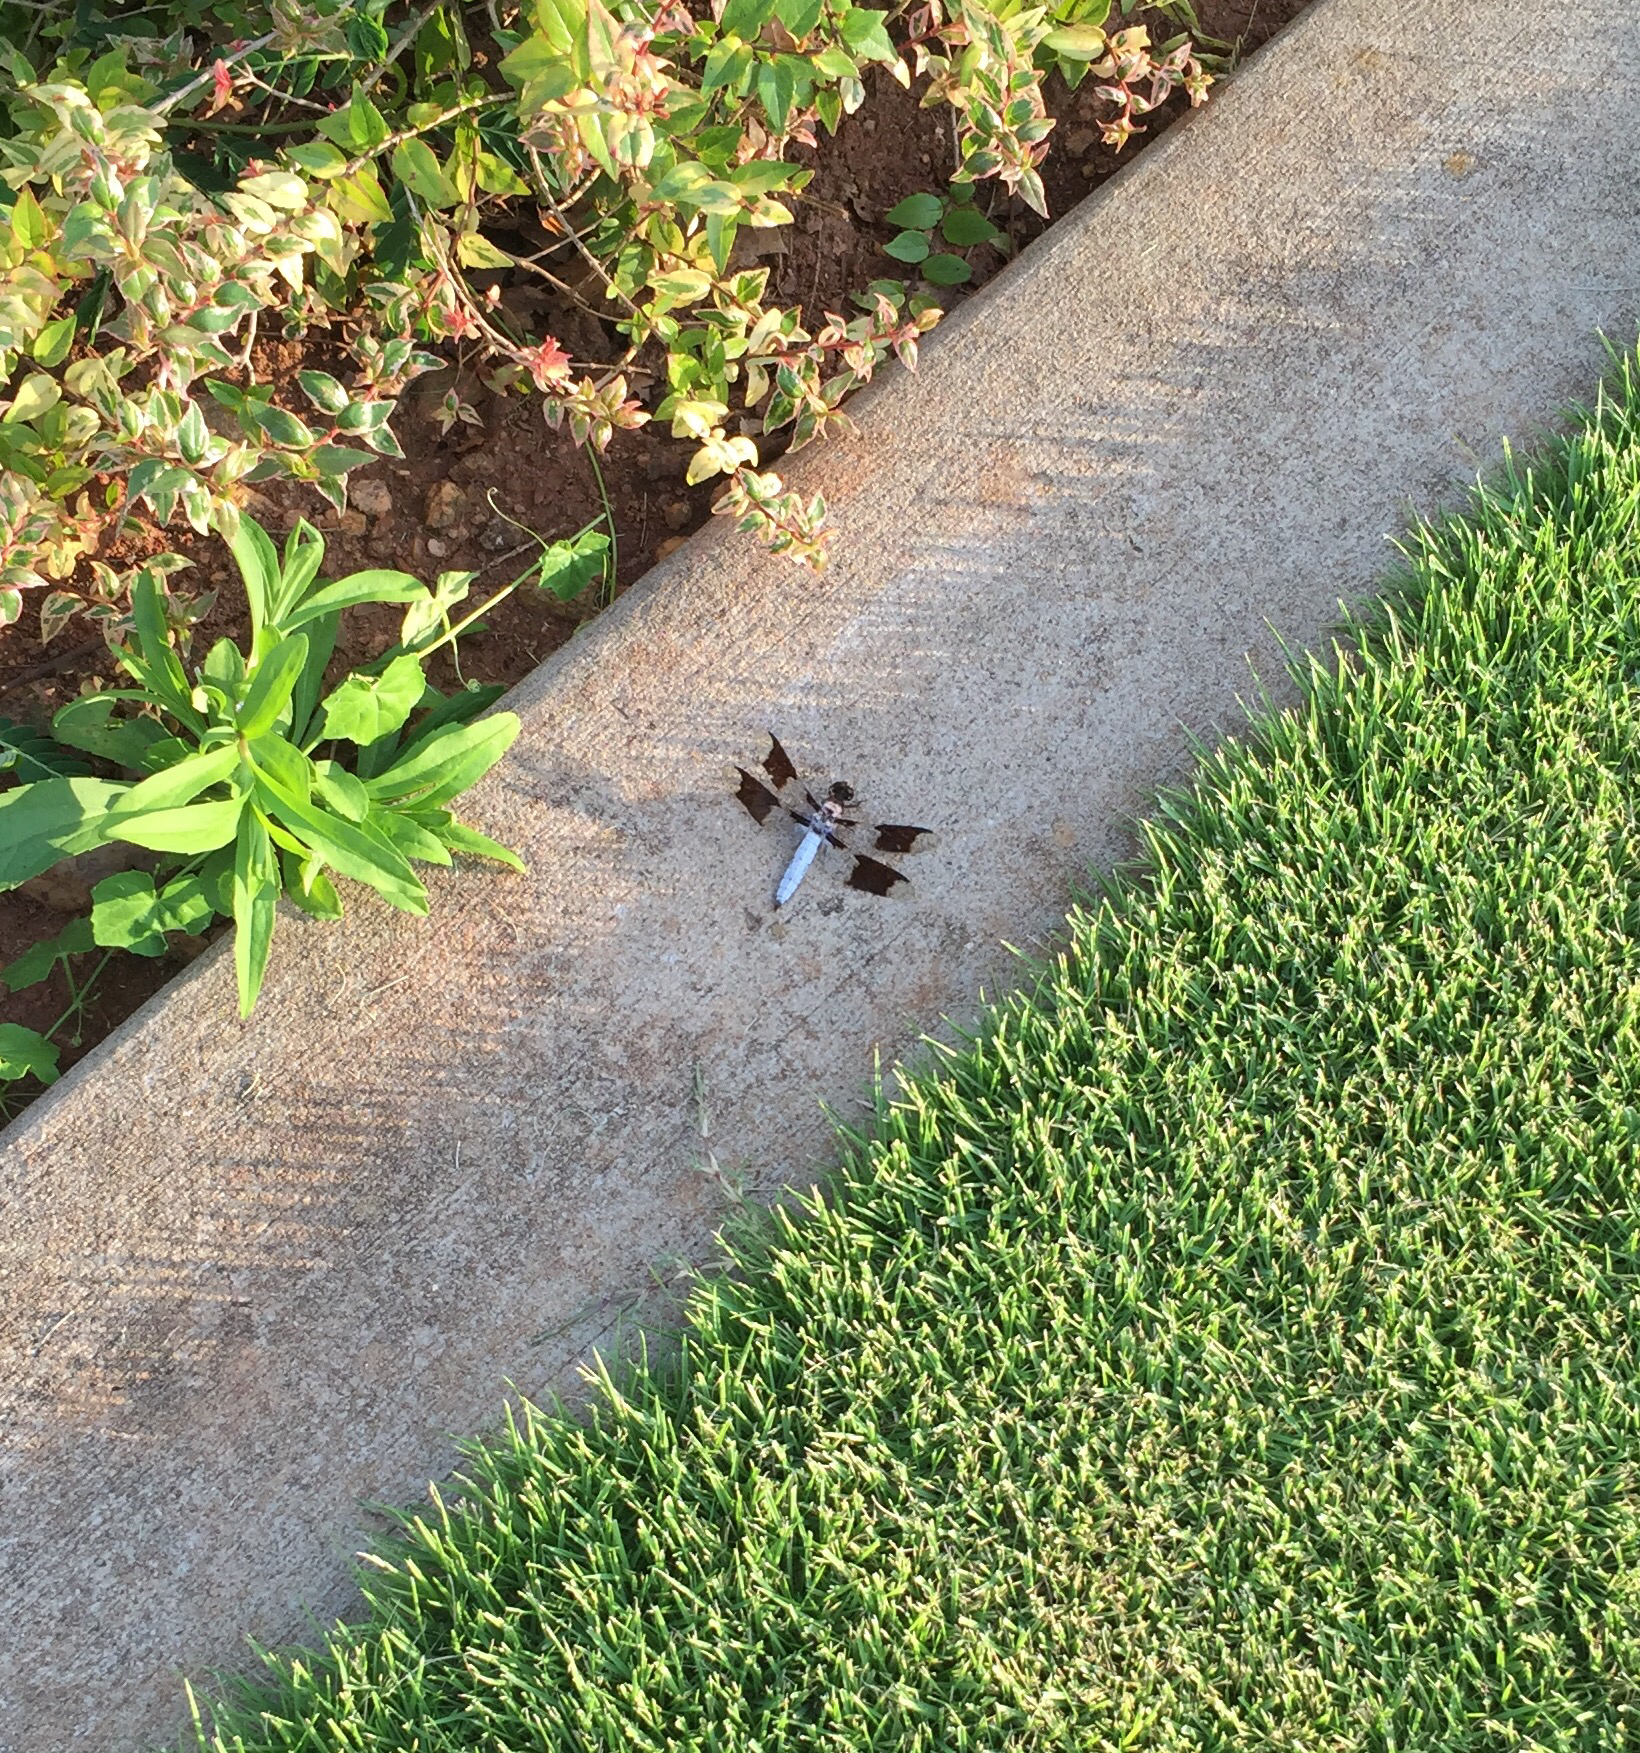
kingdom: Animalia
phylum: Arthropoda
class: Insecta
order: Odonata
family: Libellulidae
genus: Plathemis
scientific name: Plathemis lydia
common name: Common whitetail
